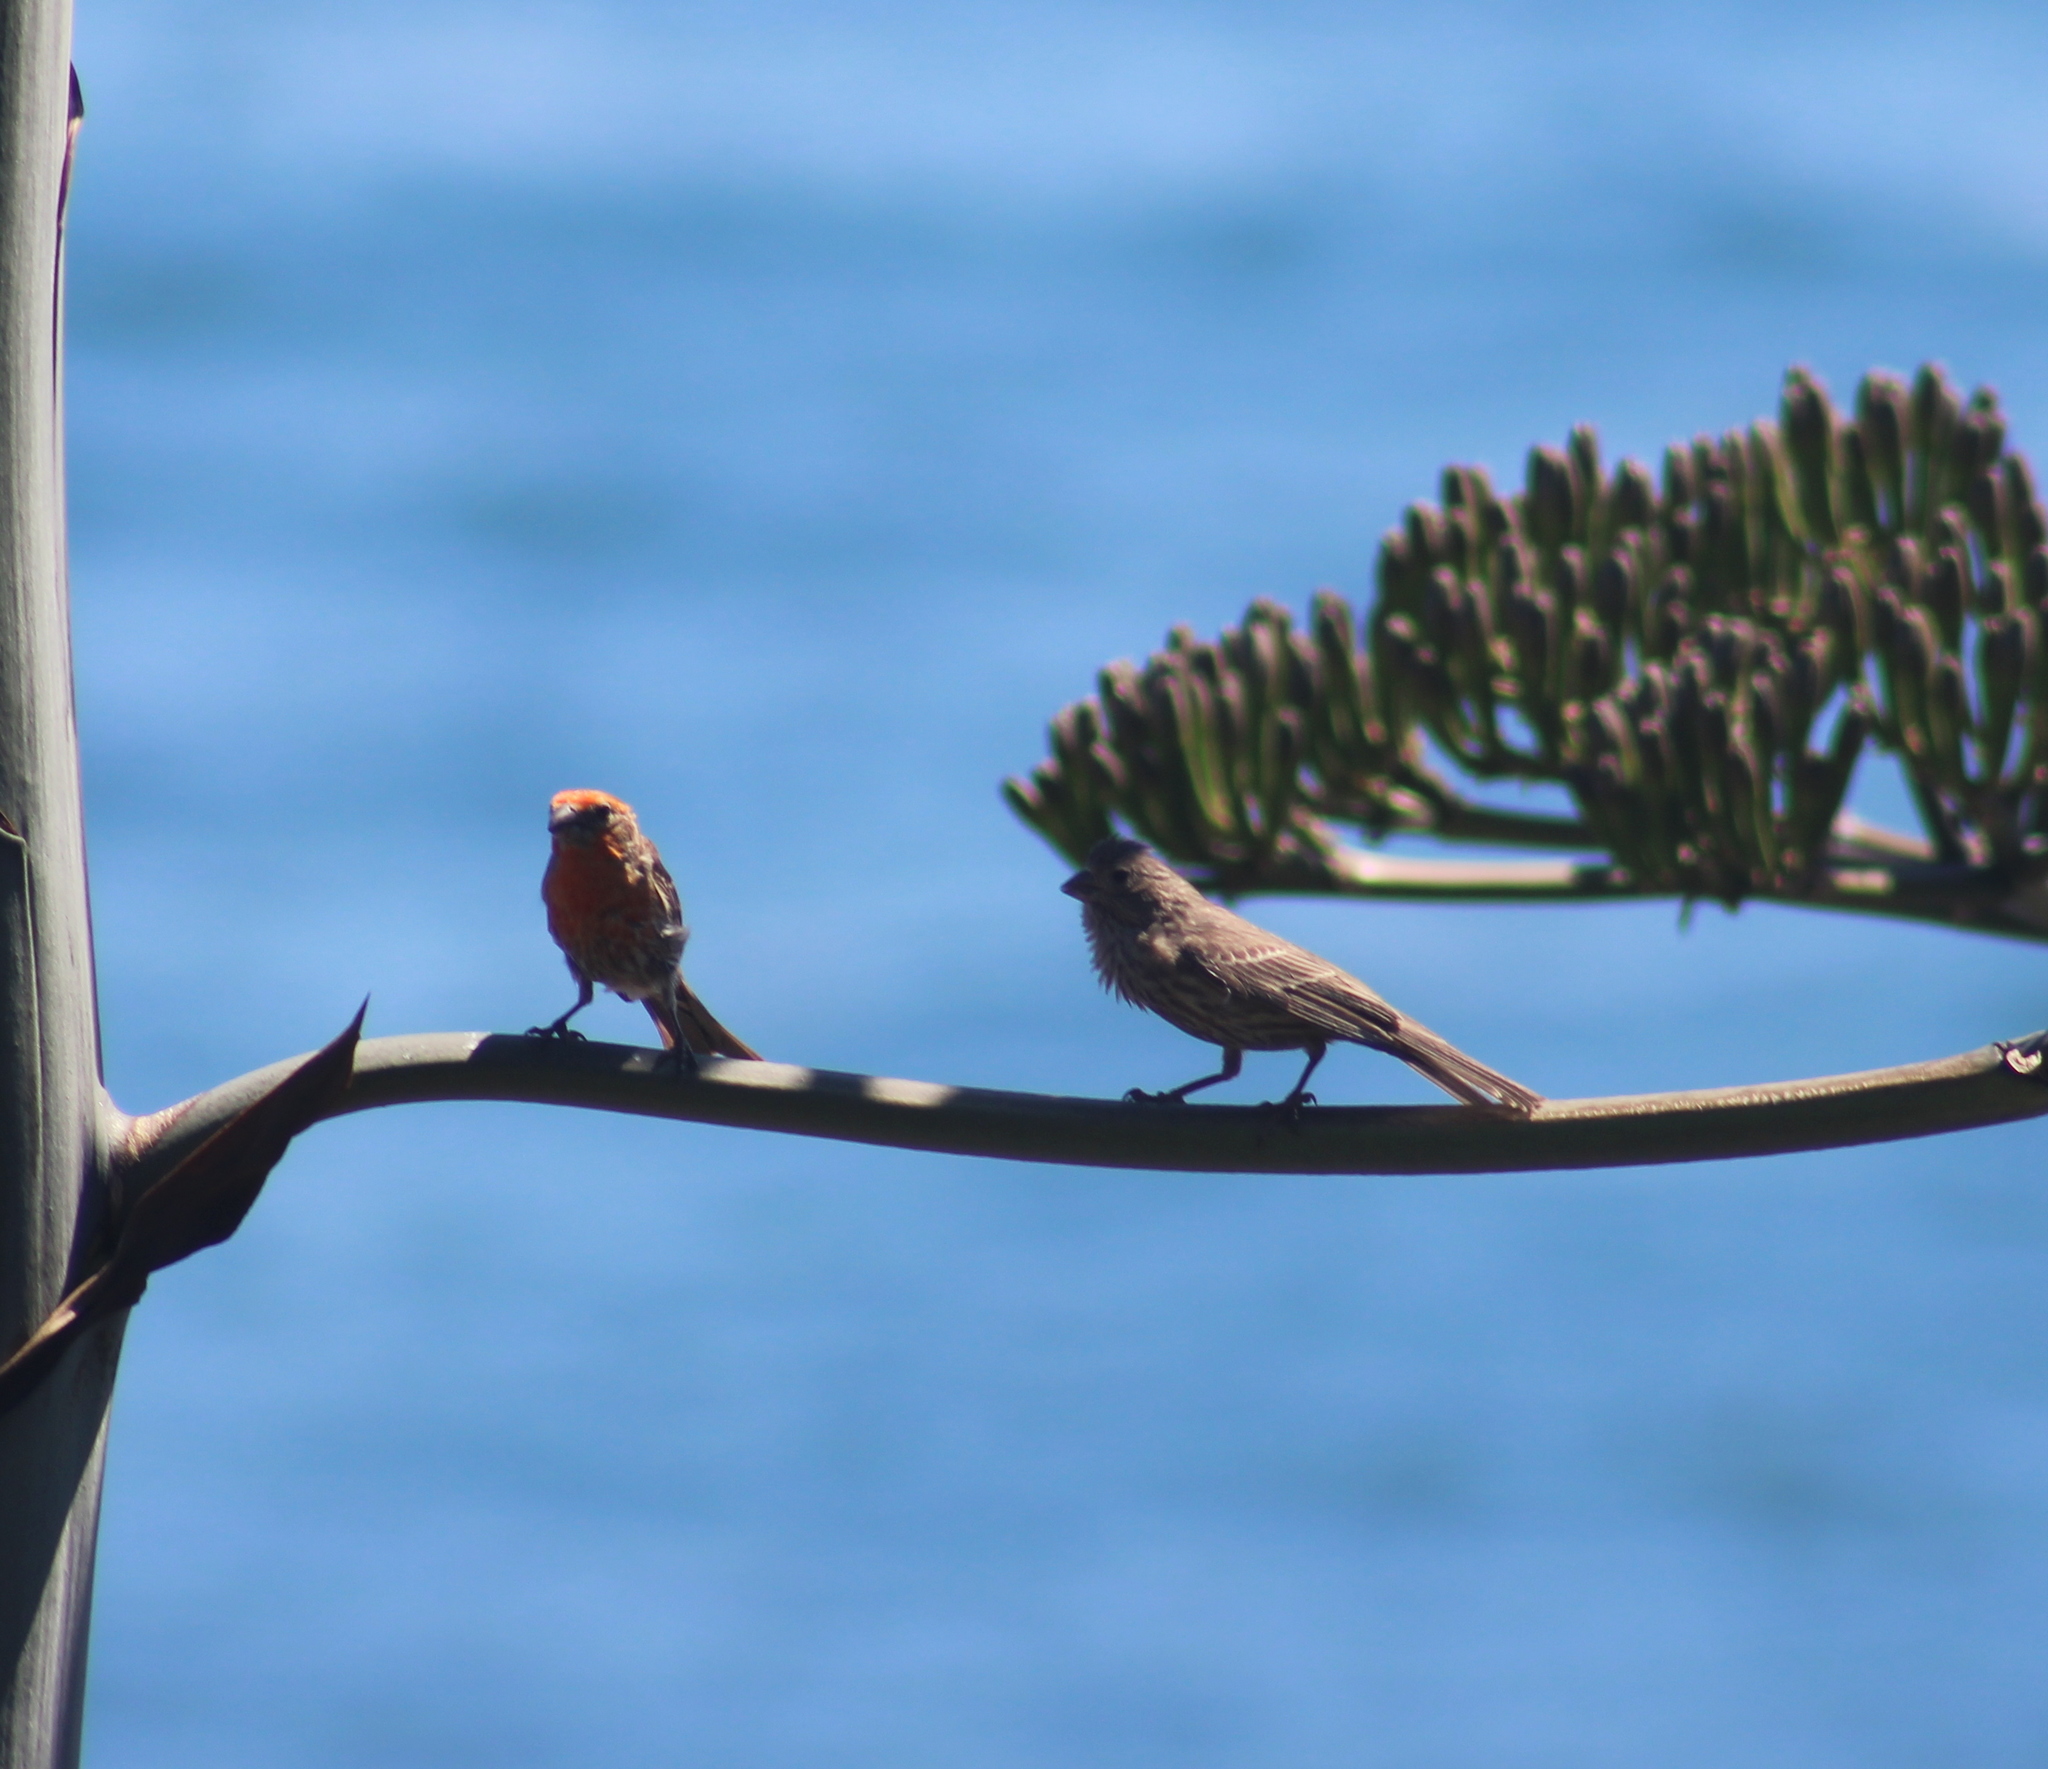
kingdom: Animalia
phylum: Chordata
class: Aves
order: Passeriformes
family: Fringillidae
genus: Haemorhous
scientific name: Haemorhous mexicanus
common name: House finch
